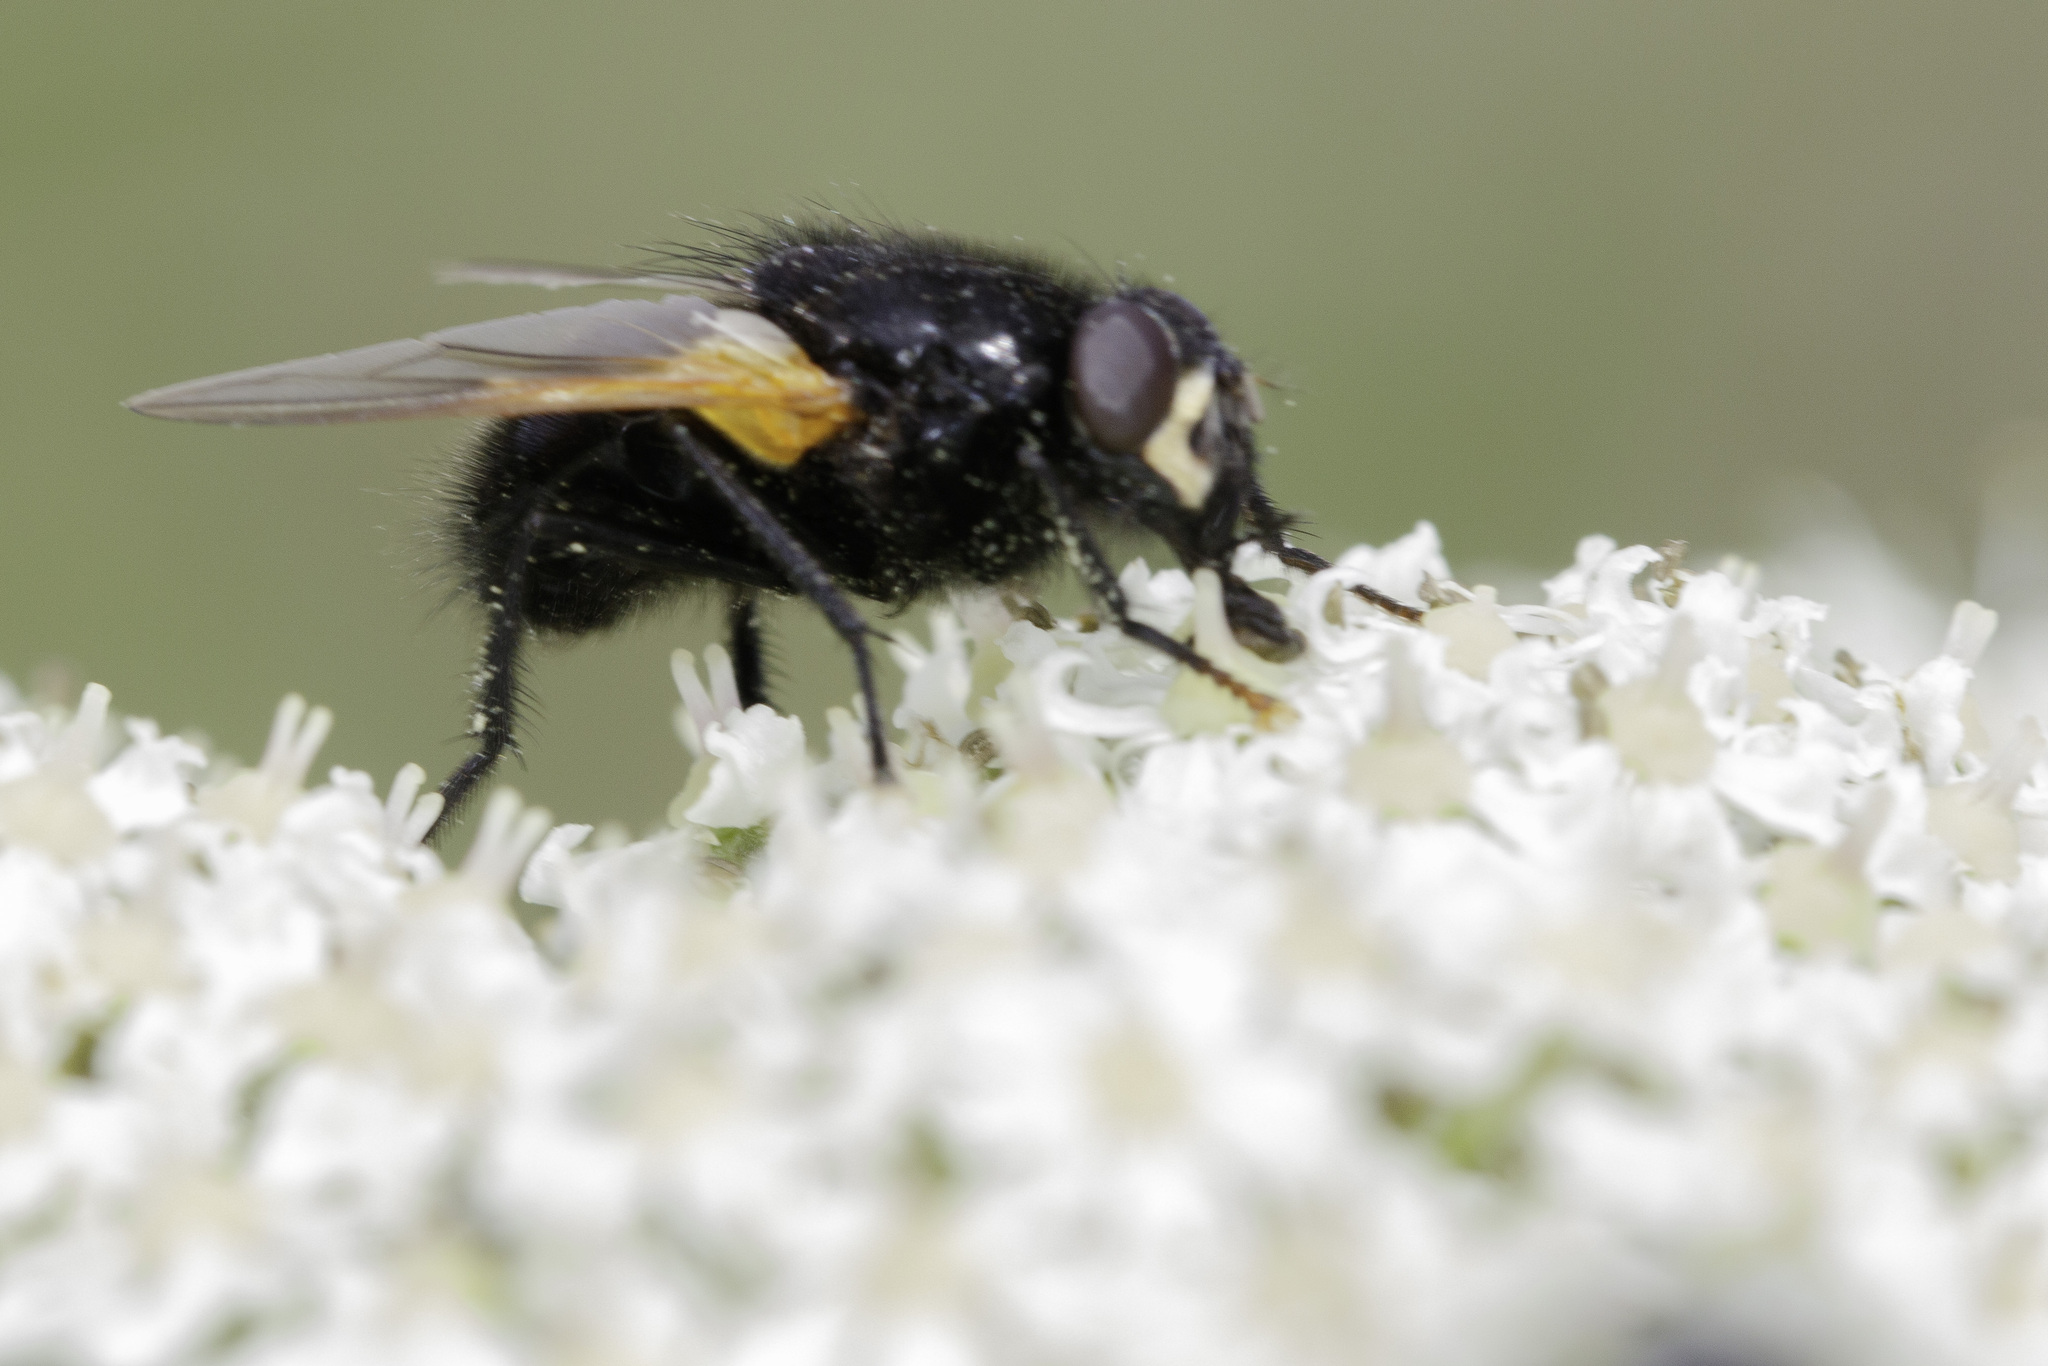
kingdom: Animalia
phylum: Arthropoda
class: Insecta
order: Diptera
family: Muscidae
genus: Mesembrina
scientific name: Mesembrina meridiana
